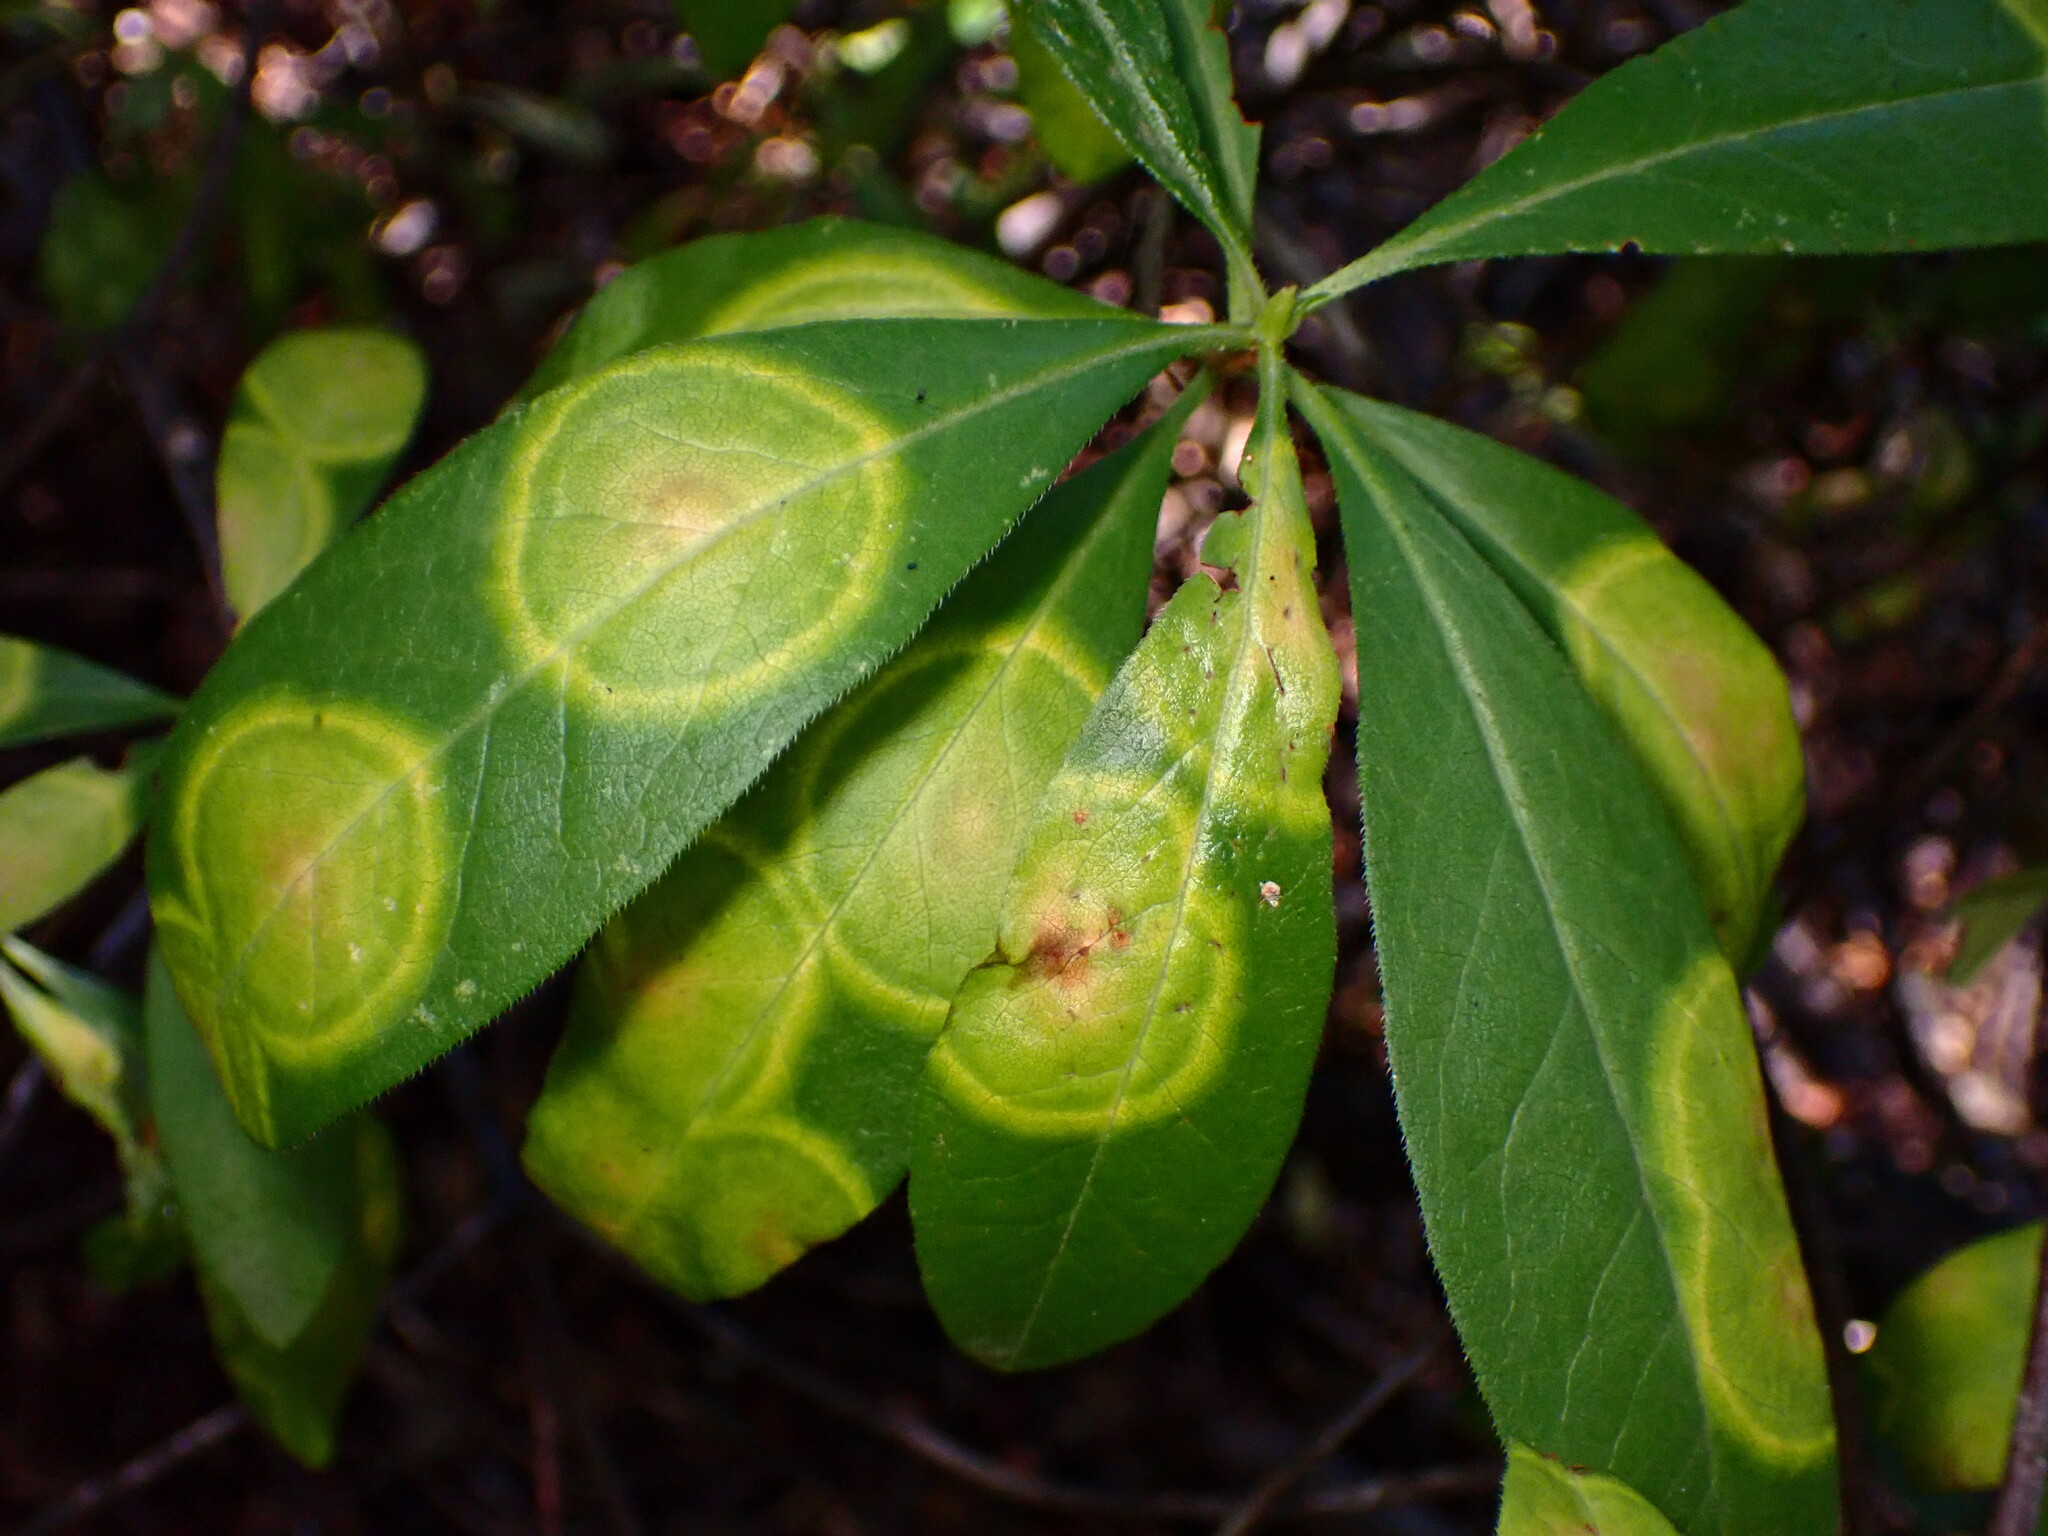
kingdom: Fungi
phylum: Basidiomycota
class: Exobasidiomycetes
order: Exobasidiales
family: Exobasidiaceae
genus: Exobasidium
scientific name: Exobasidium myrtilli
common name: Blaeberry redleaf
